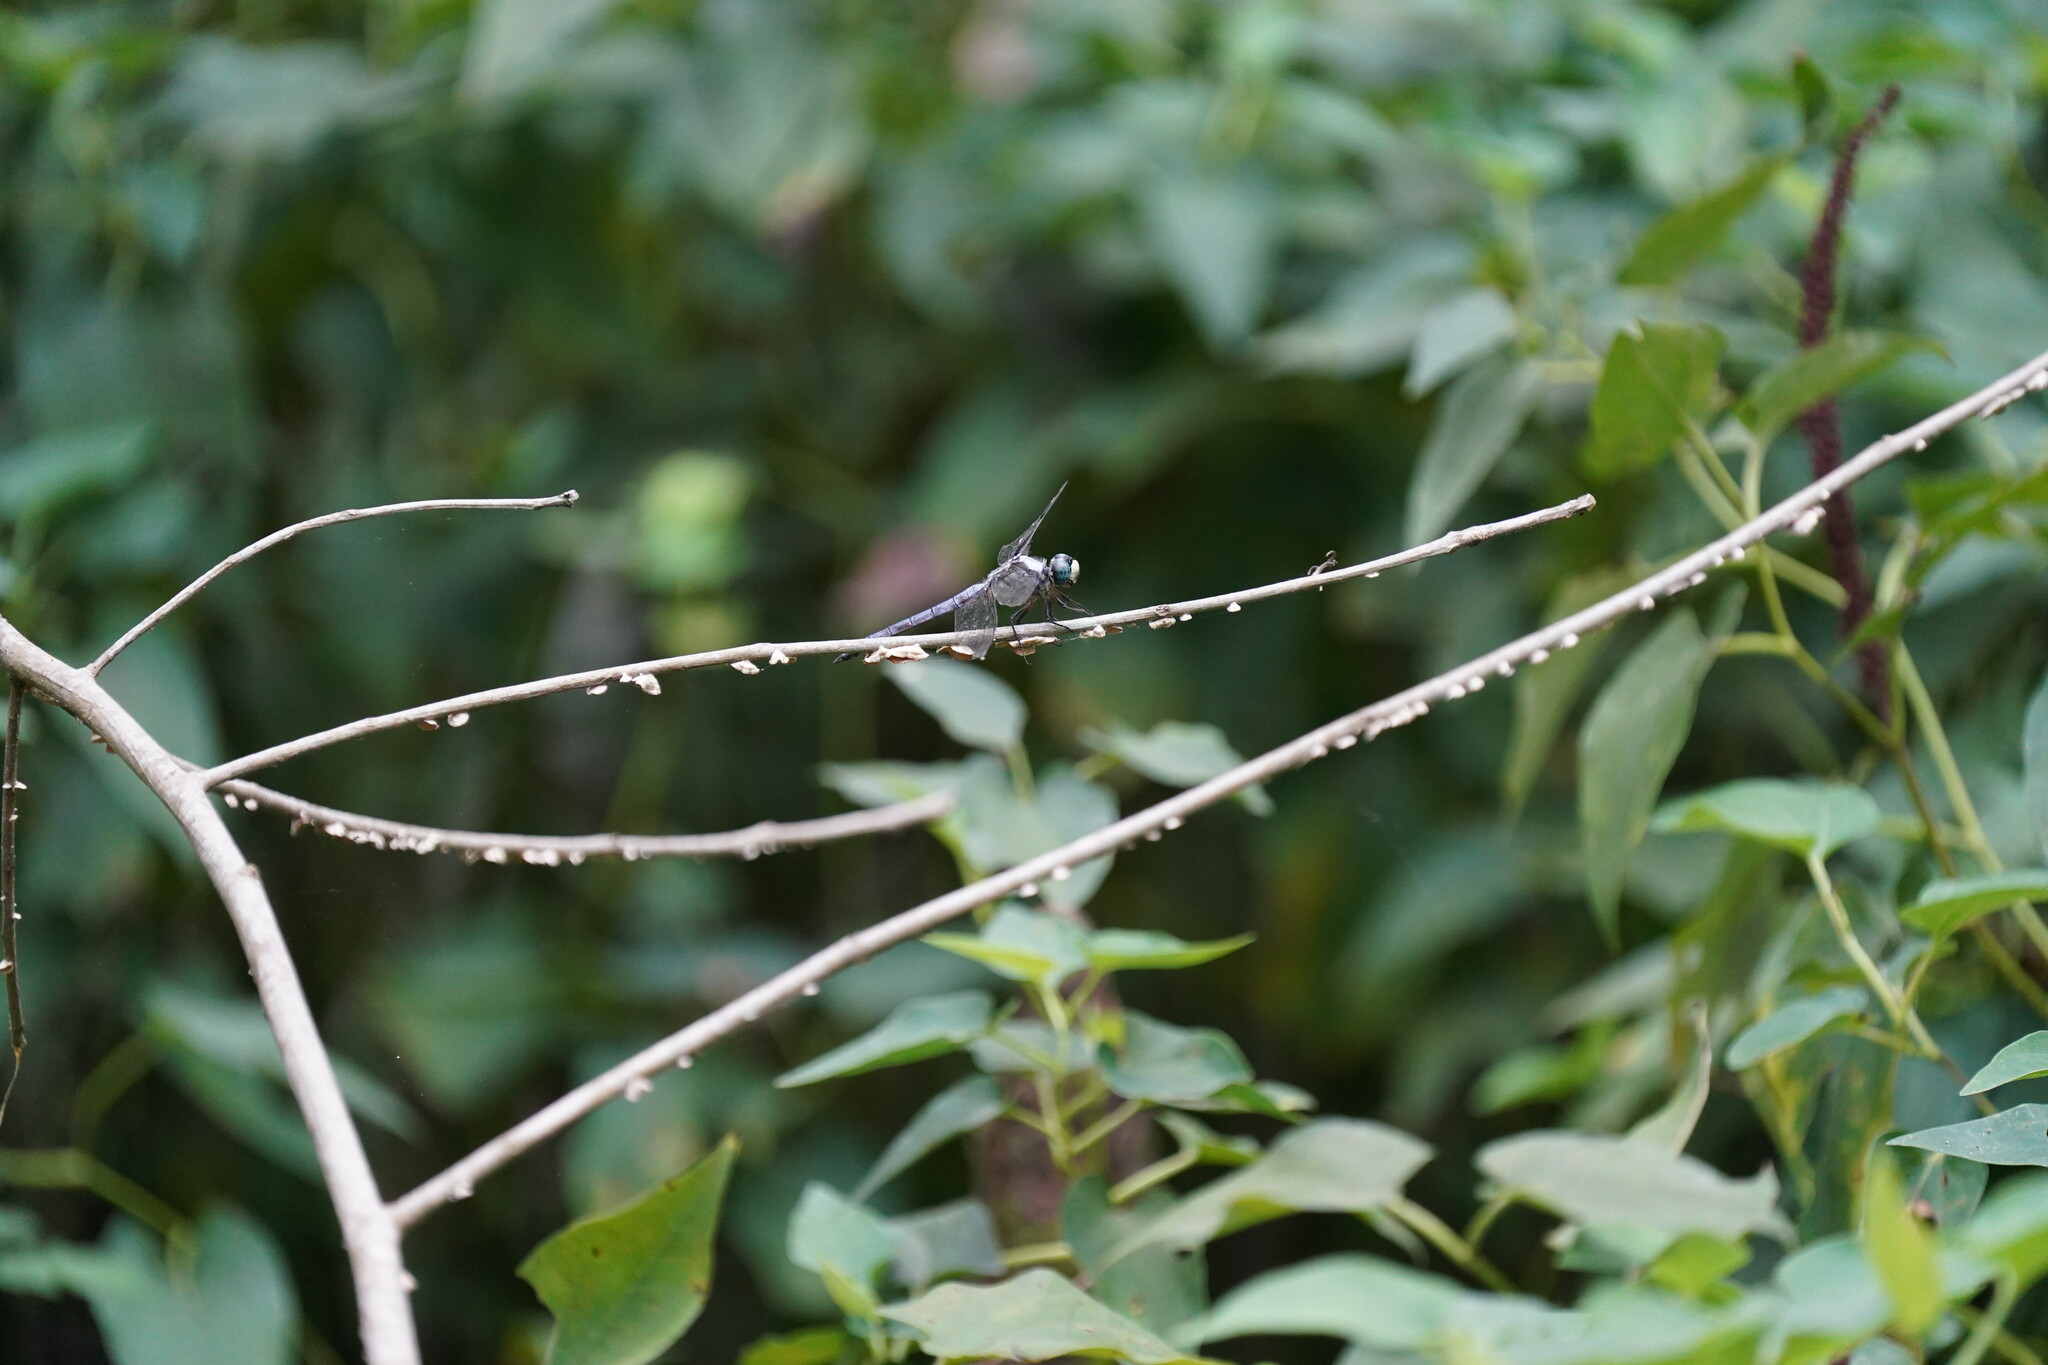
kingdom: Animalia
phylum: Arthropoda
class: Insecta
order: Odonata
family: Libellulidae
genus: Libellula
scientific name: Libellula vibrans
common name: Great blue skimmer
